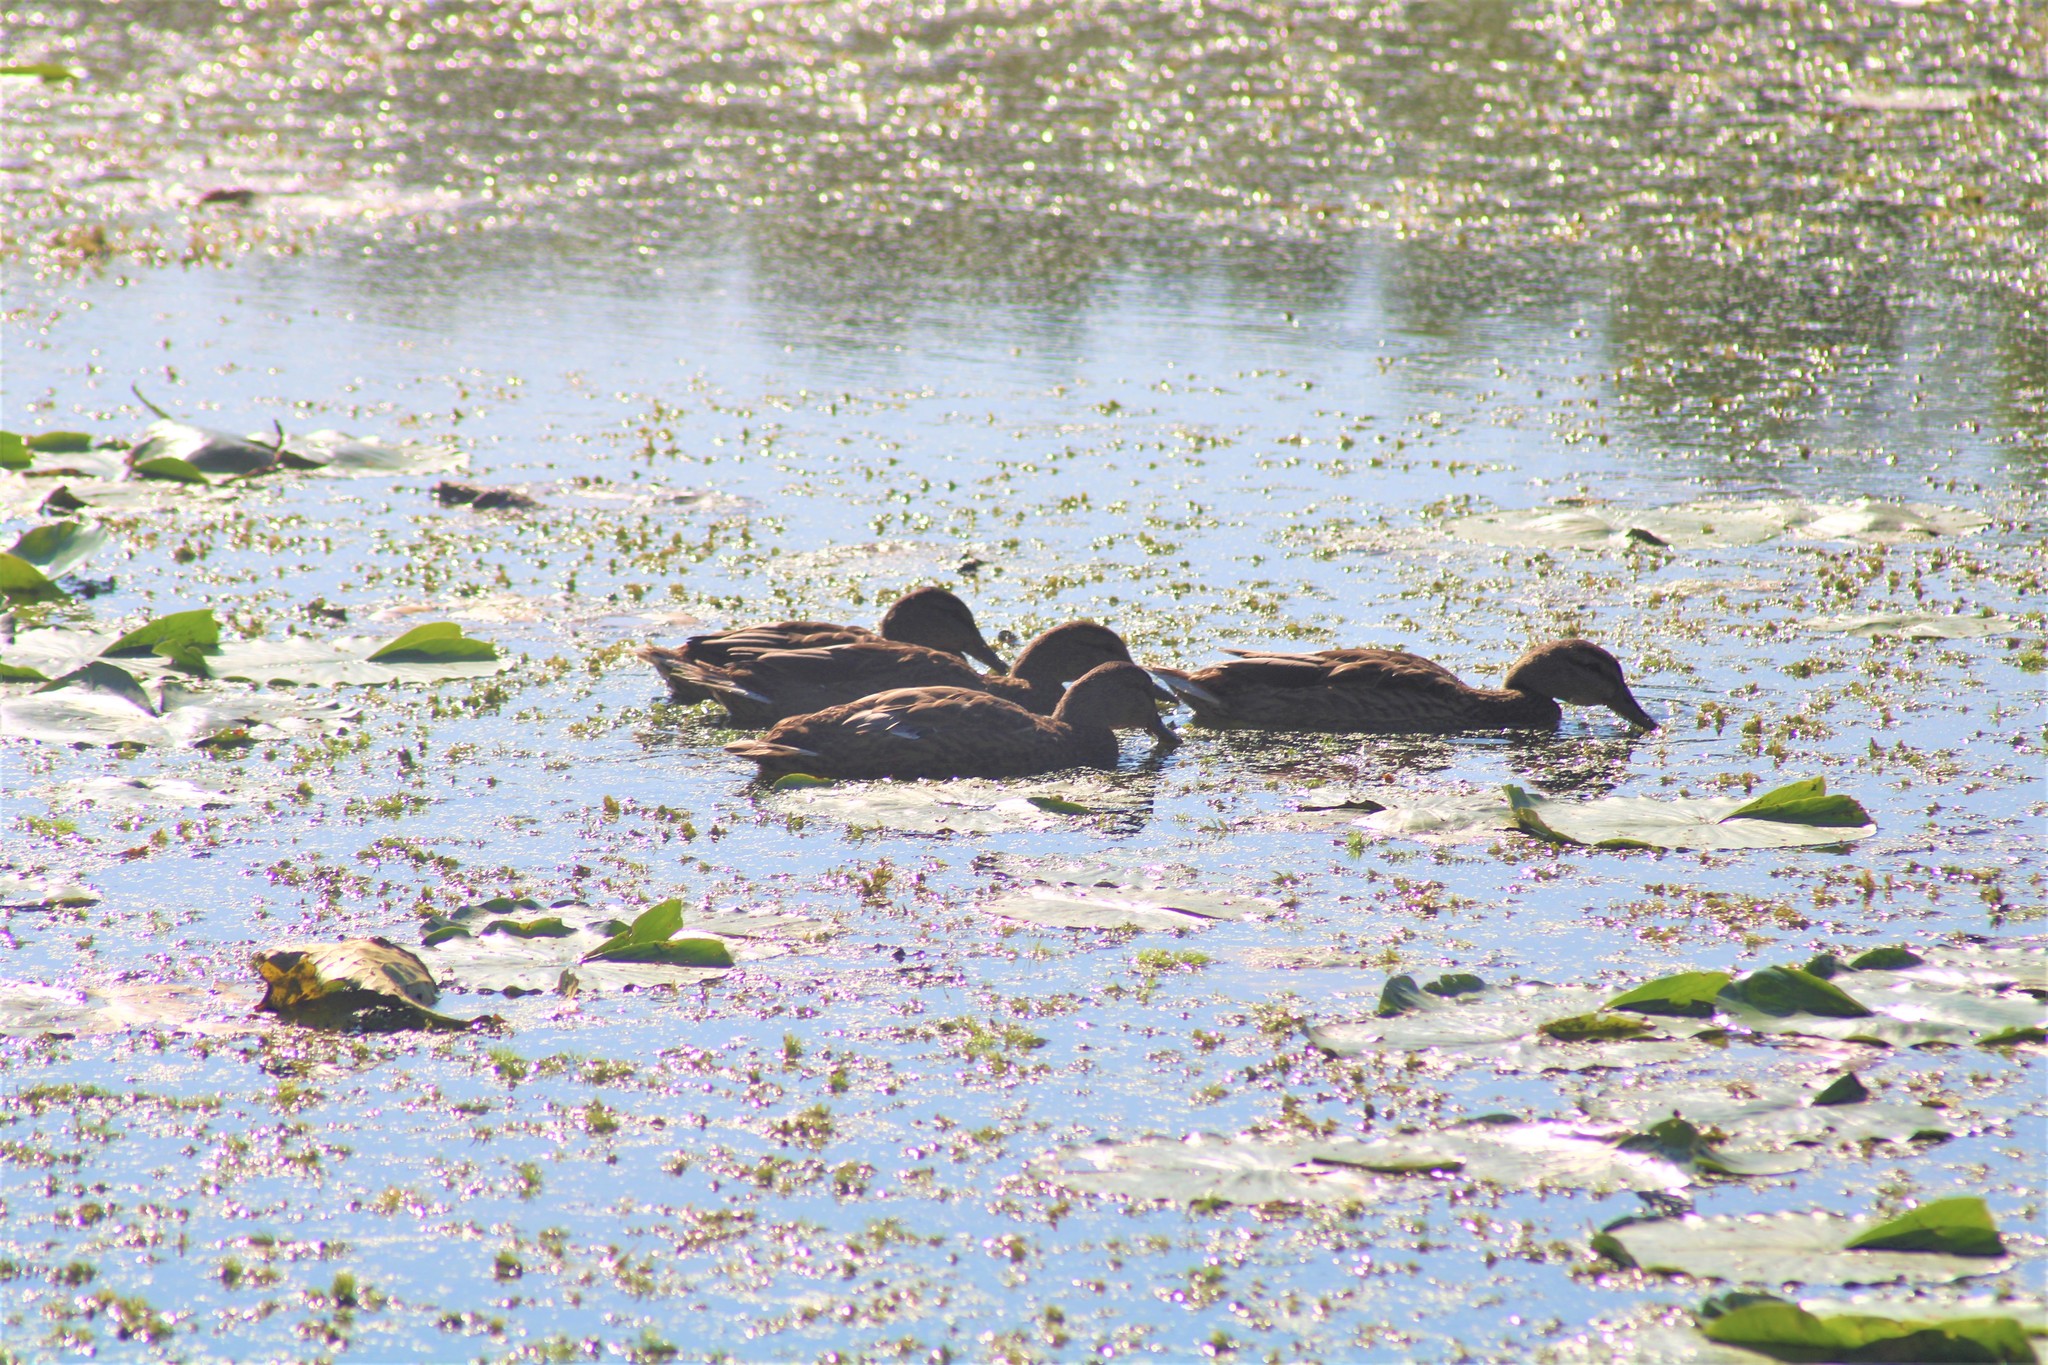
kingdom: Animalia
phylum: Chordata
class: Aves
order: Anseriformes
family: Anatidae
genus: Anas
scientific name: Anas platyrhynchos
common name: Mallard
